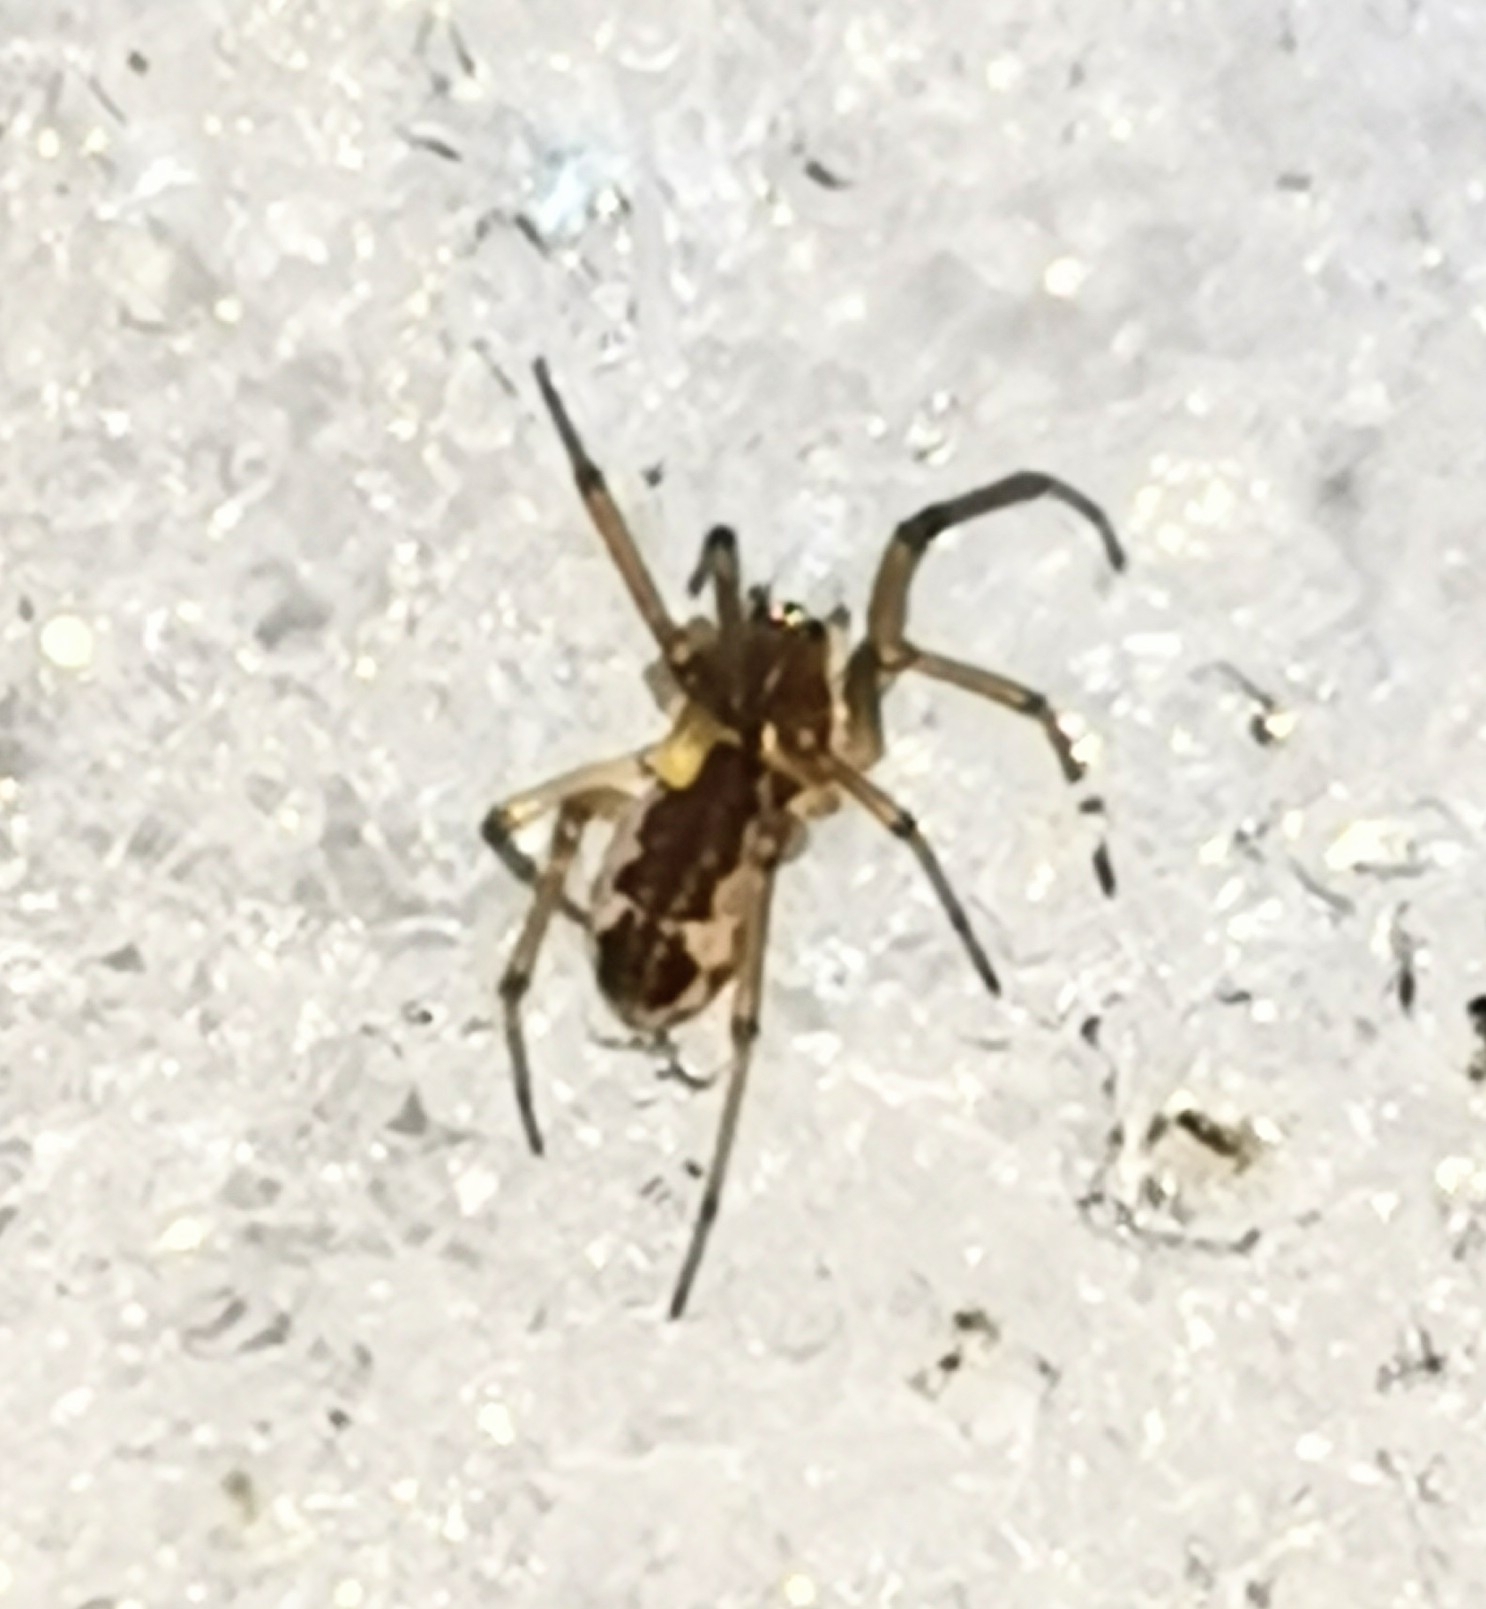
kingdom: Animalia
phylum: Arthropoda
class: Arachnida
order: Araneae
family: Linyphiidae
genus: Neriene
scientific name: Neriene peltata
